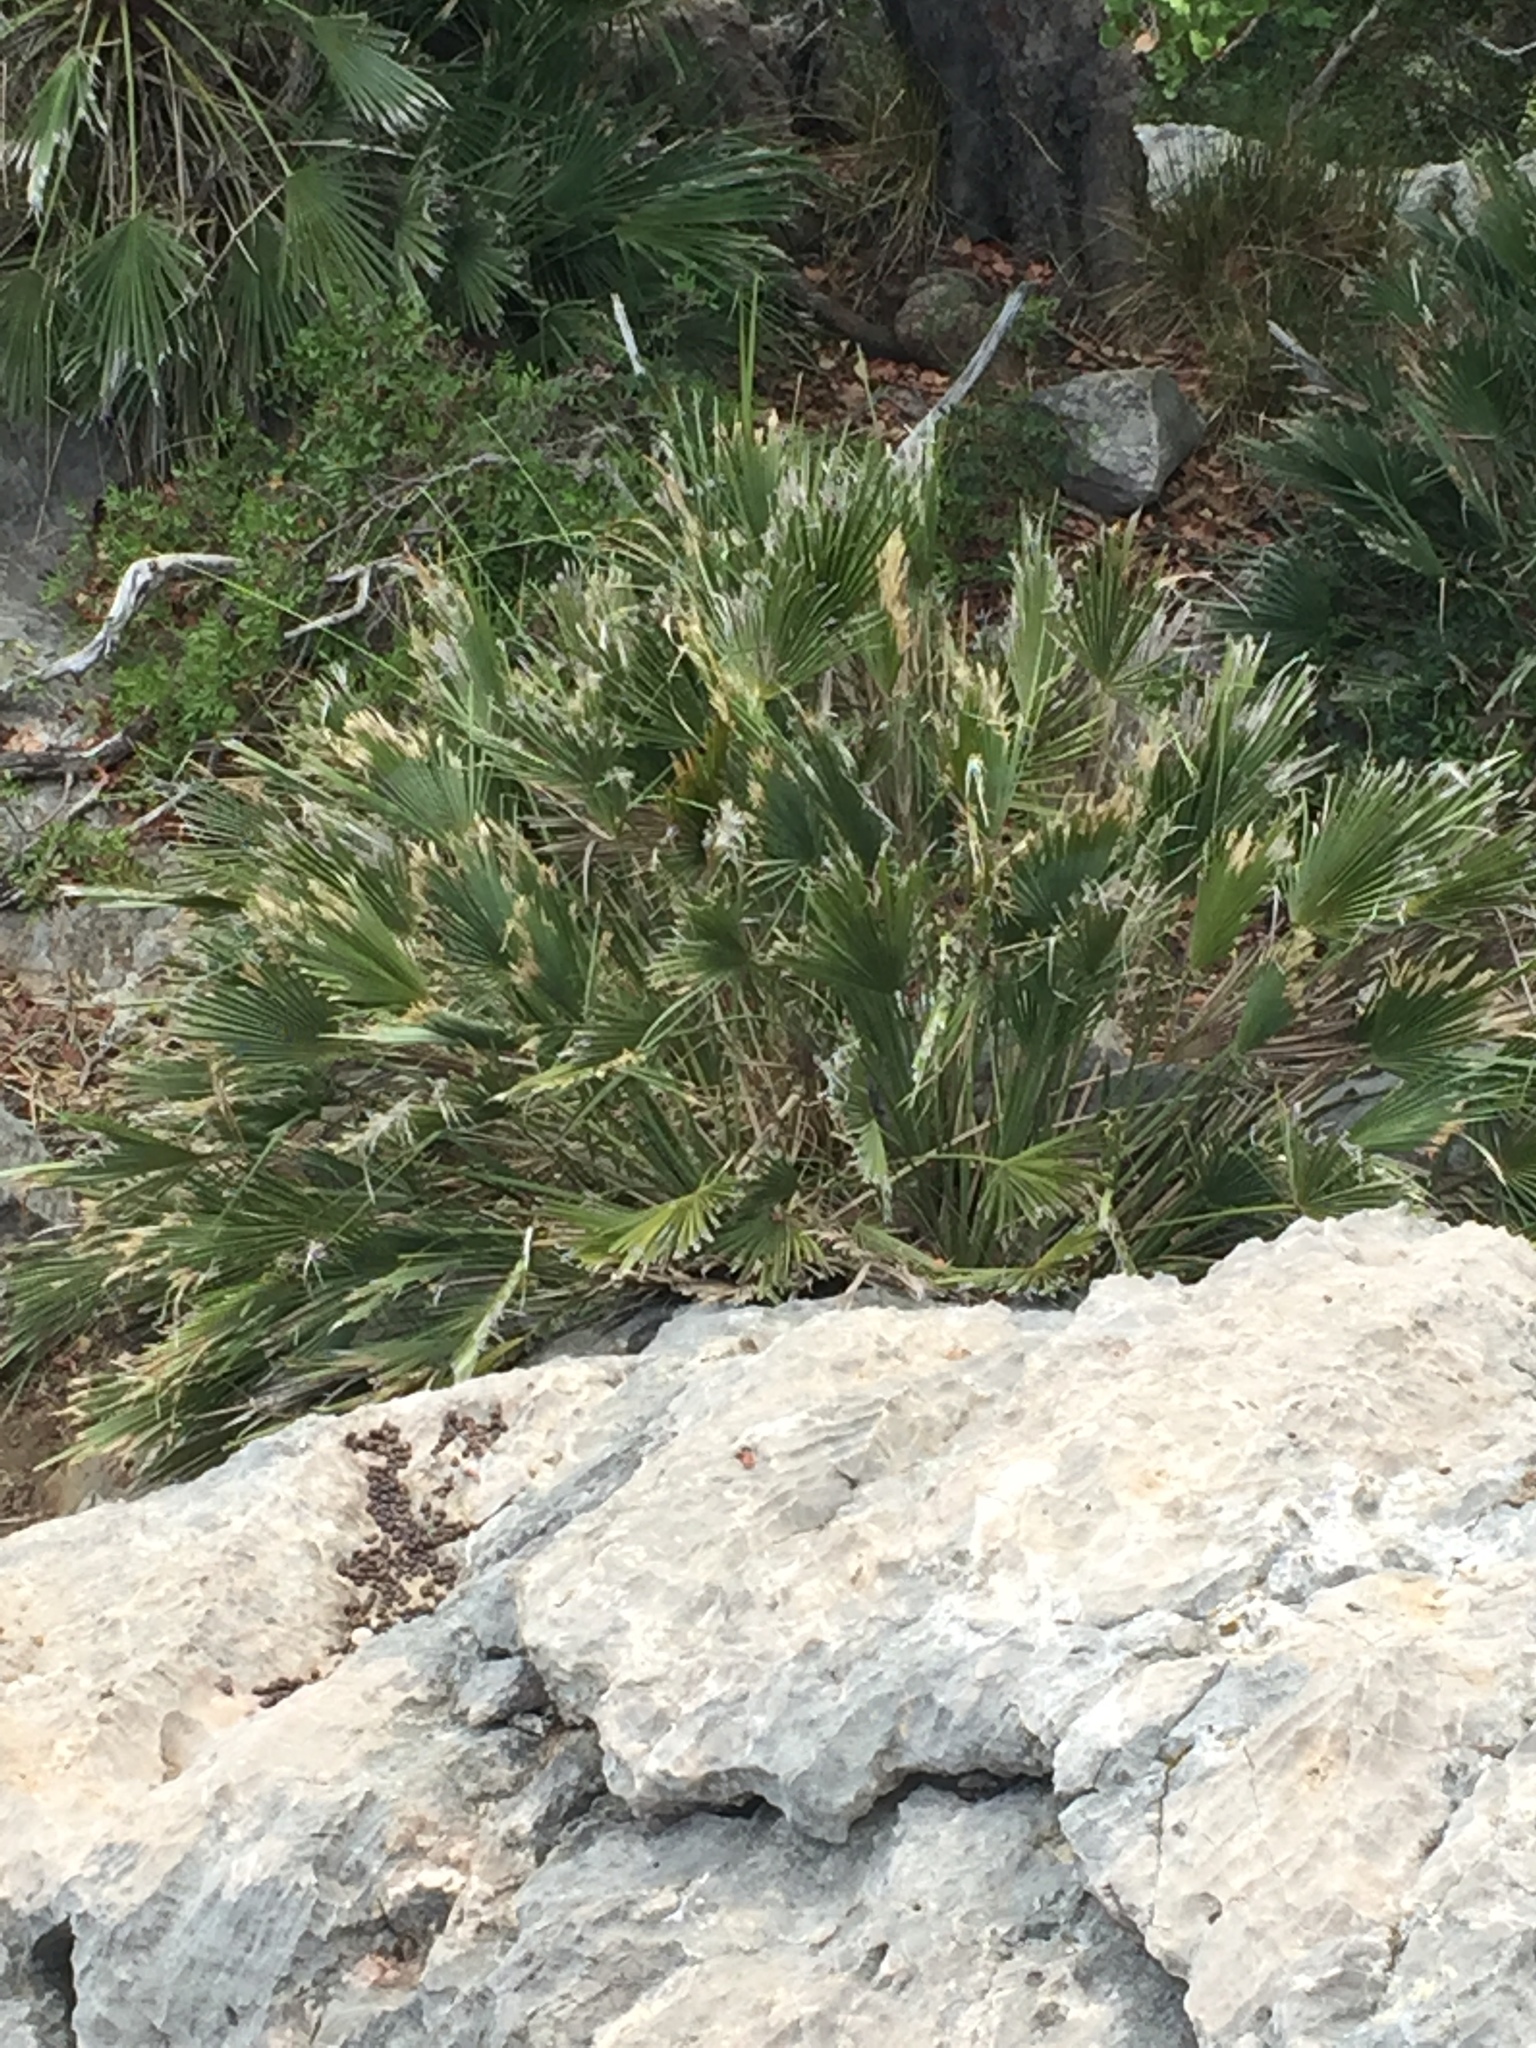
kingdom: Plantae
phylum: Tracheophyta
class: Liliopsida
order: Arecales
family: Arecaceae
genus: Chamaerops
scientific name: Chamaerops humilis
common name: Dwarf fan palm
